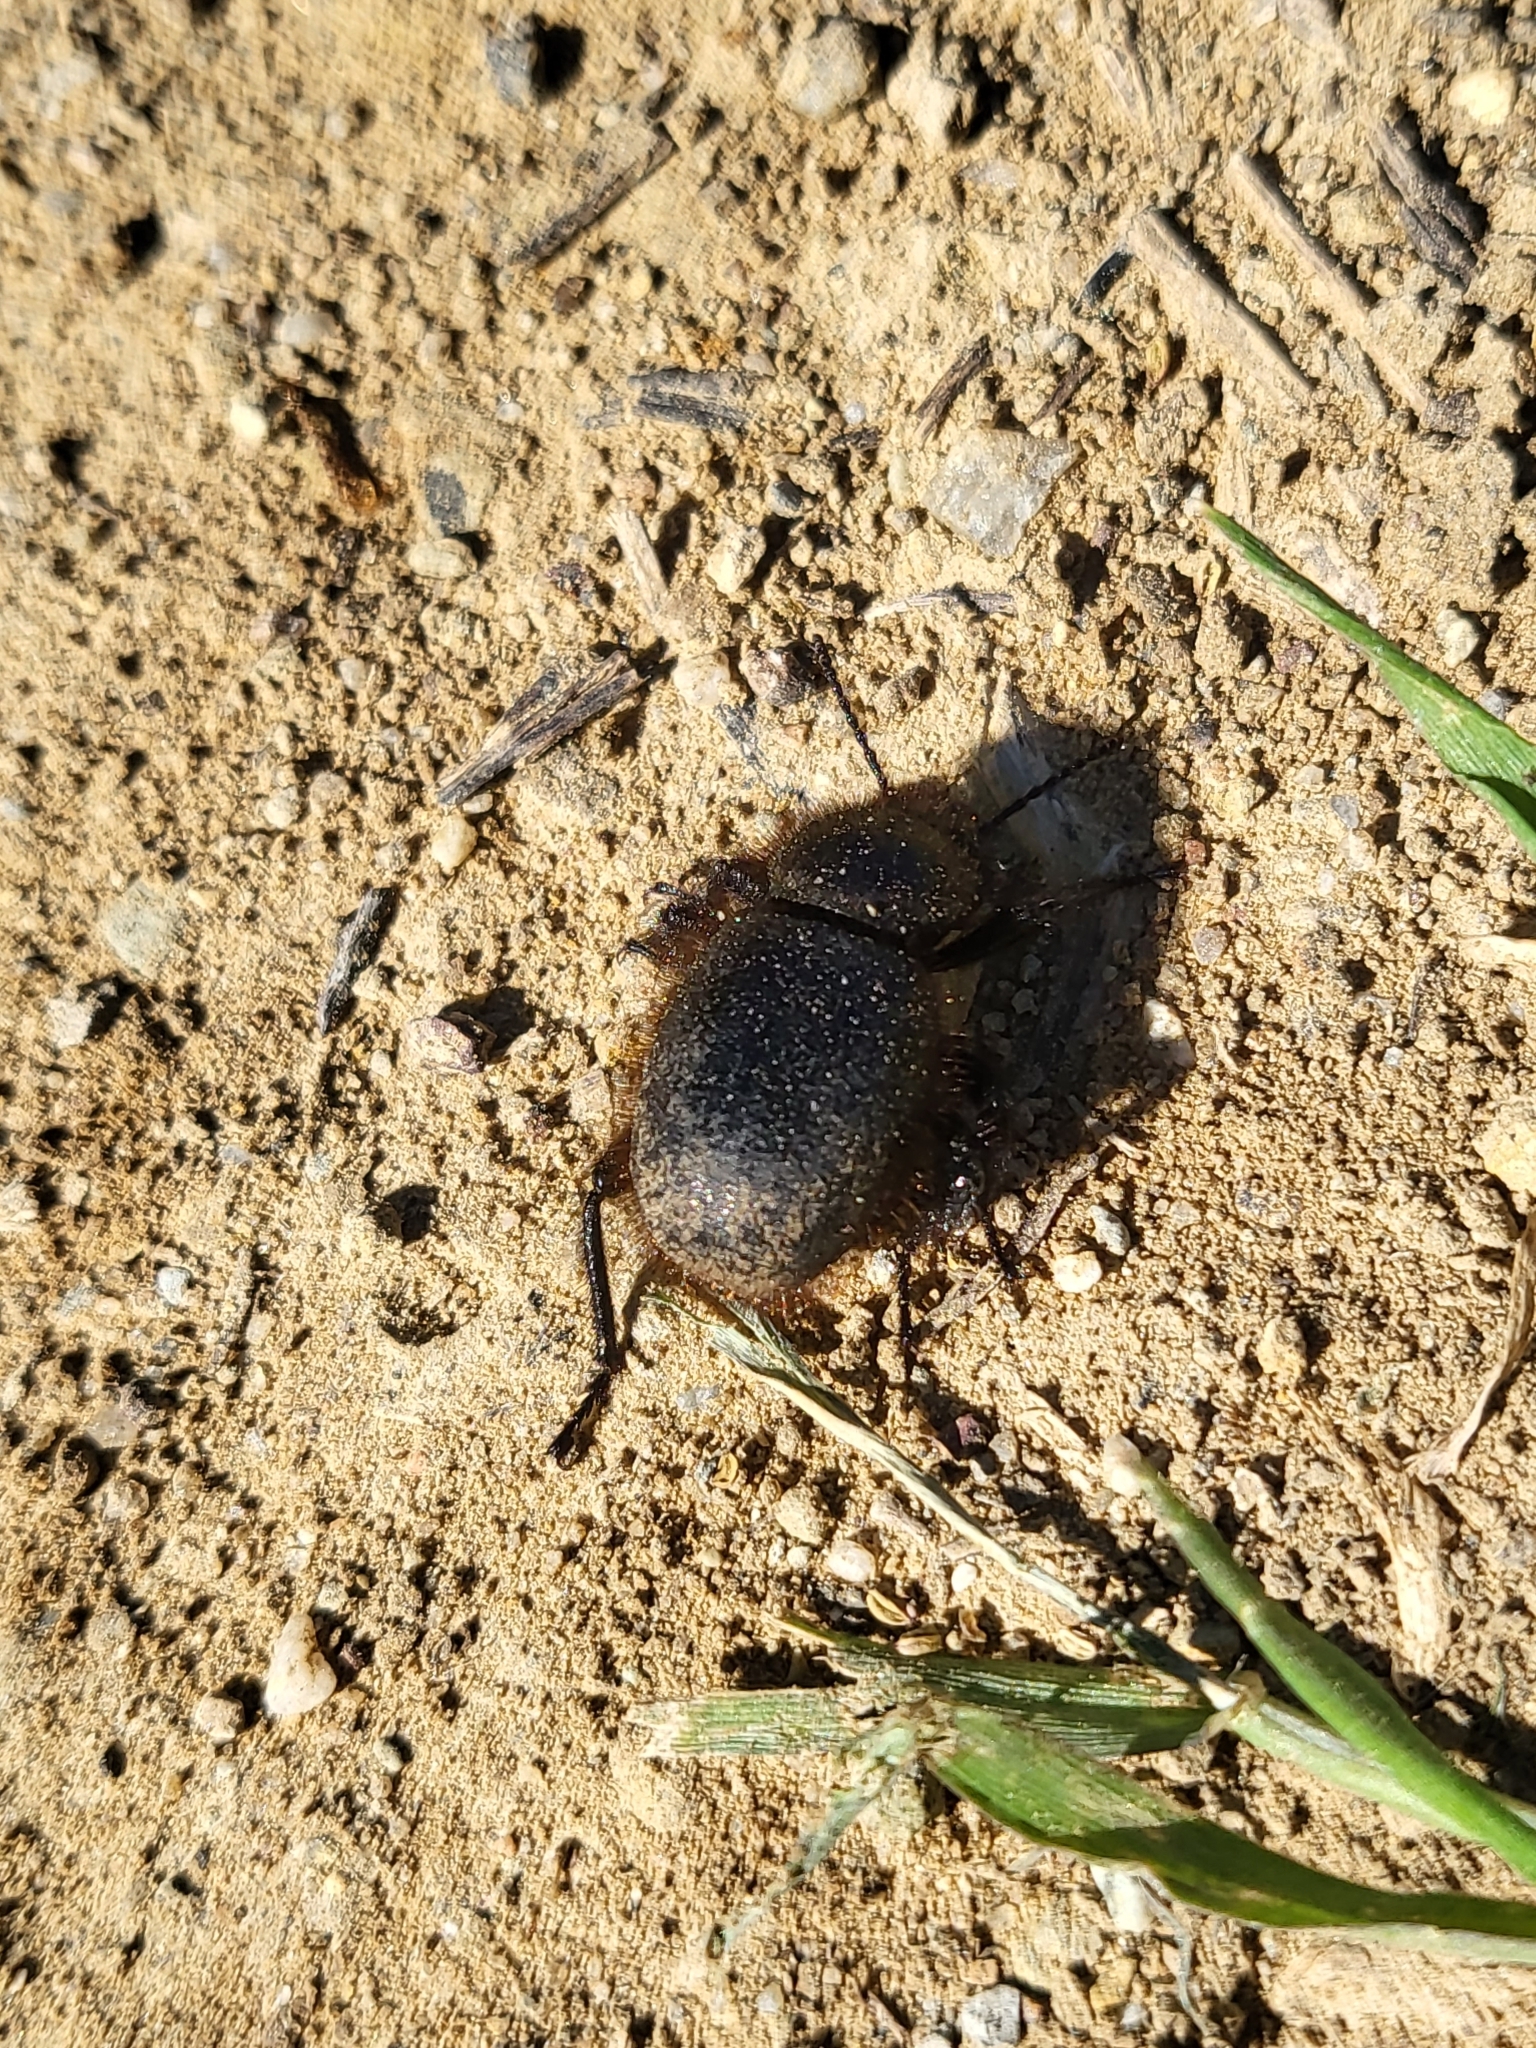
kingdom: Animalia
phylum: Arthropoda
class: Insecta
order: Coleoptera
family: Tenebrionidae
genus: Eleodes
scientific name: Eleodes osculans
